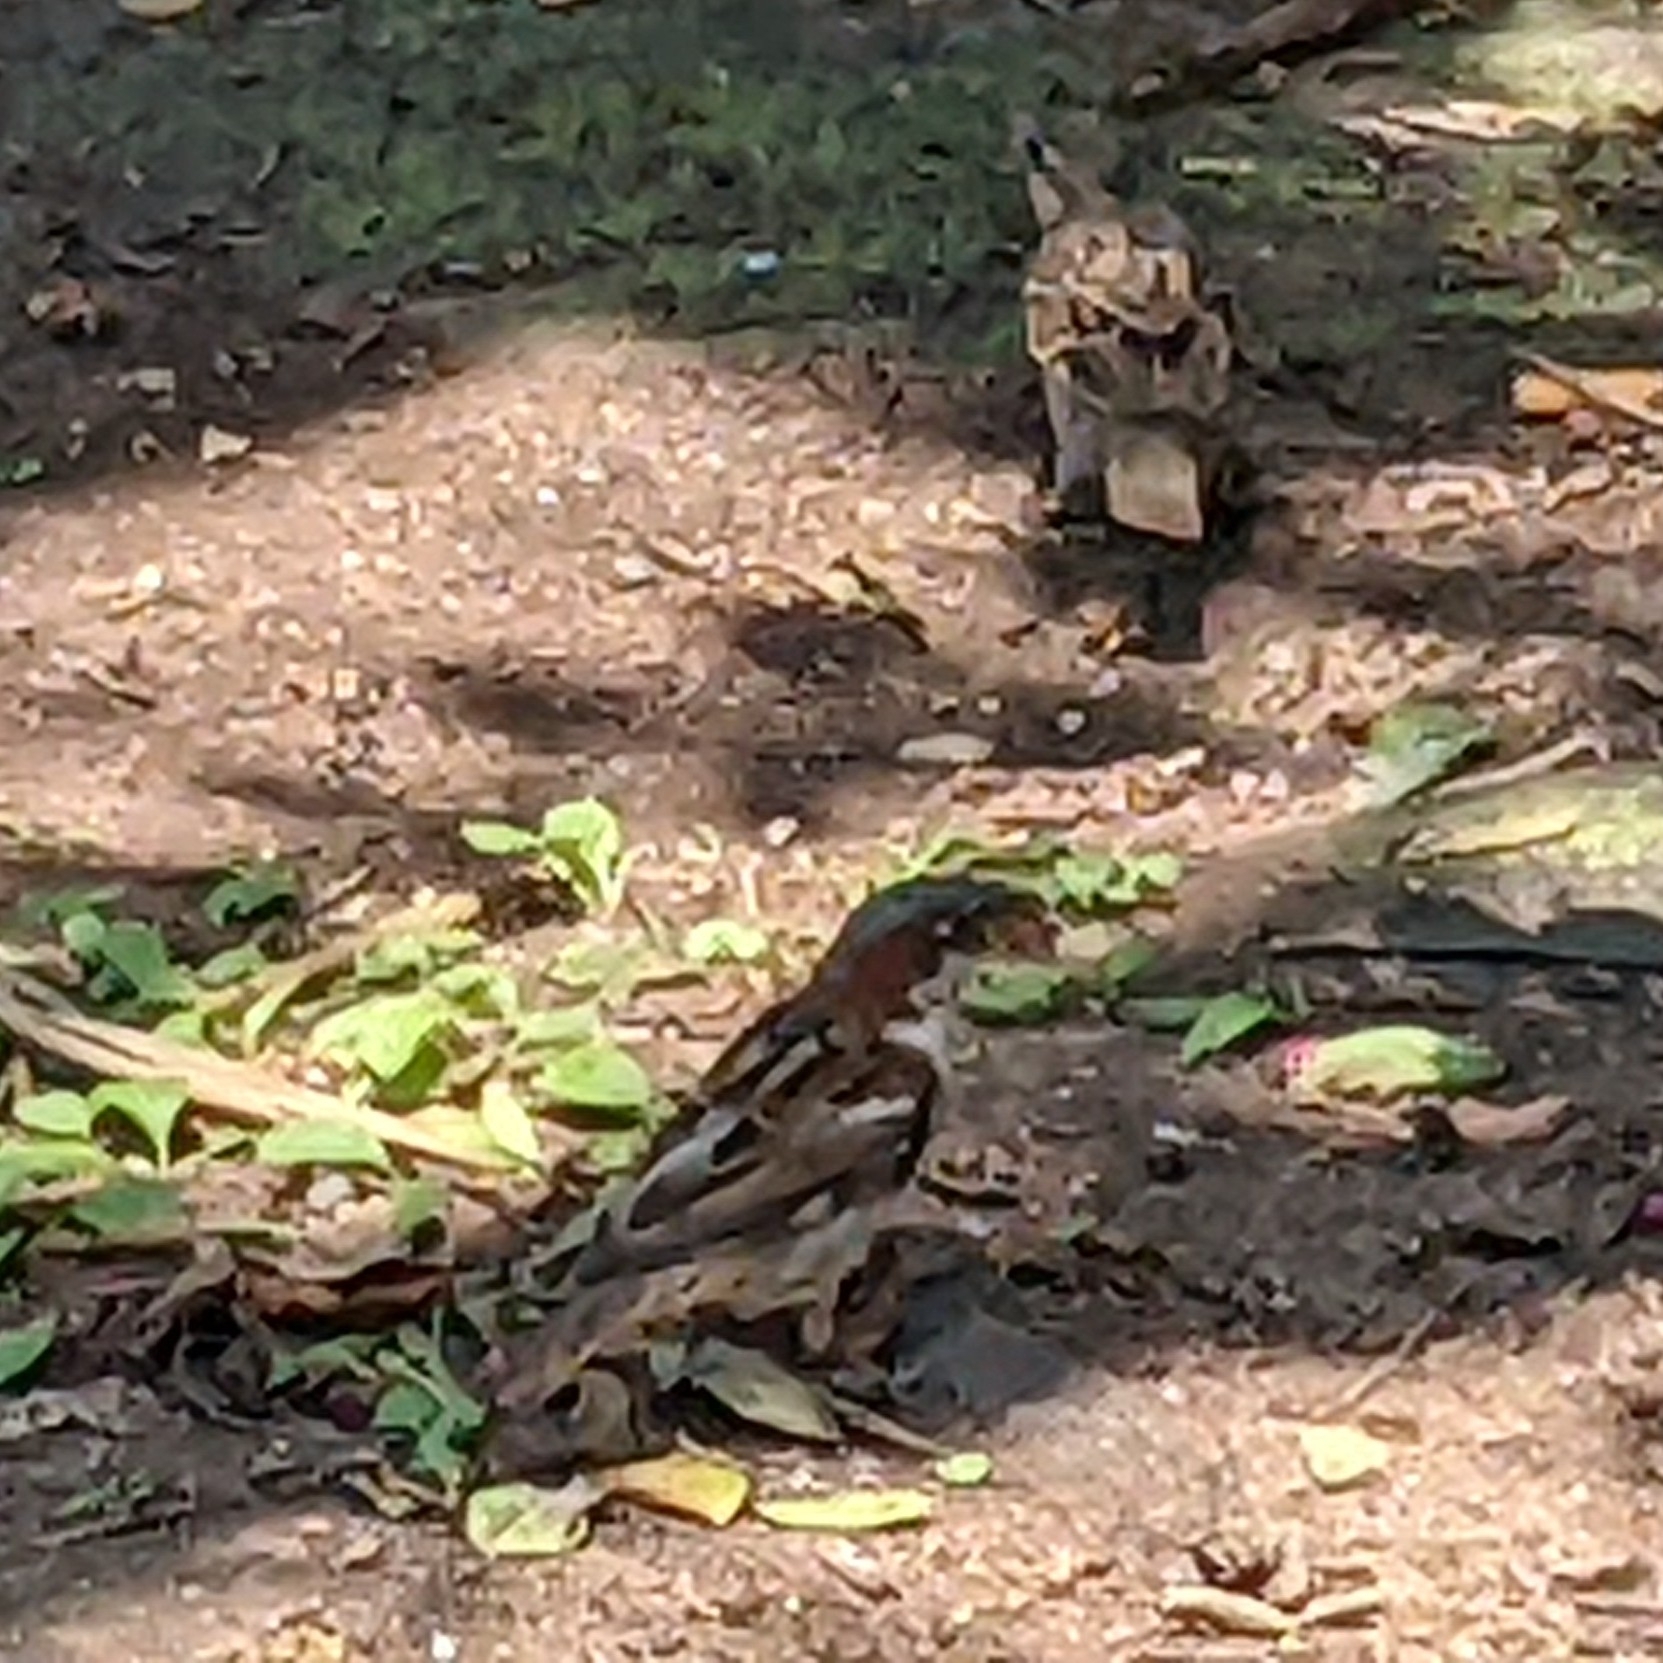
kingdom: Animalia
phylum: Chordata
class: Aves
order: Passeriformes
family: Passeridae
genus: Passer
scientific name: Passer domesticus
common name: House sparrow
